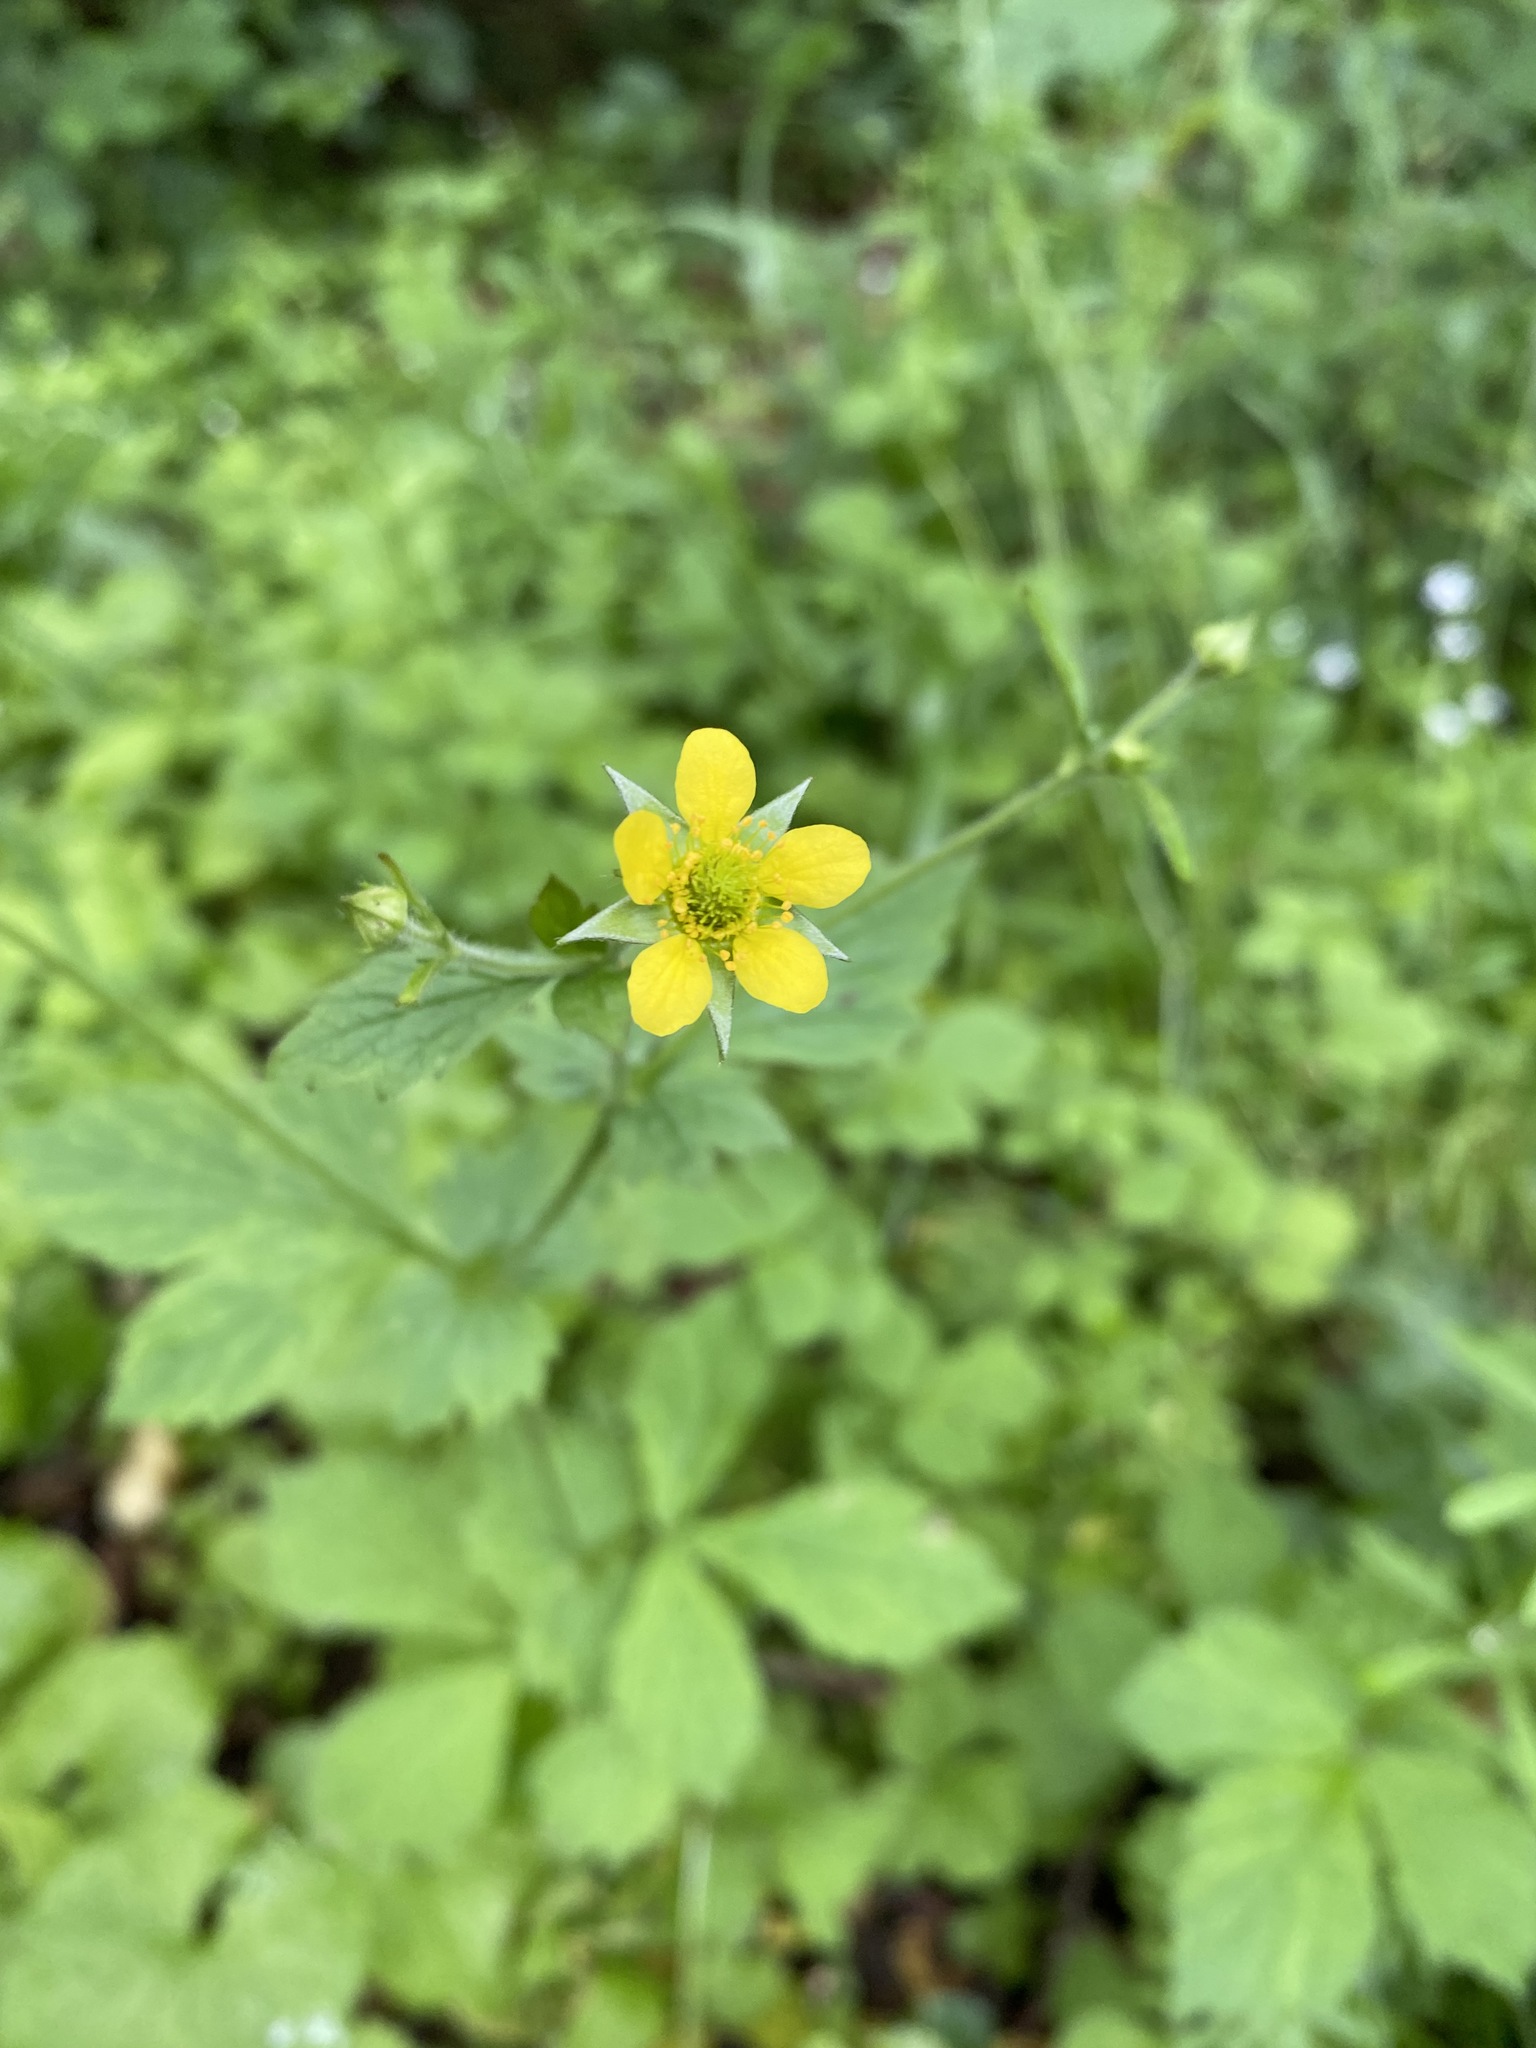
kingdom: Plantae
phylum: Tracheophyta
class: Magnoliopsida
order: Rosales
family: Rosaceae
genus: Geum
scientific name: Geum urbanum
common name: Wood avens
